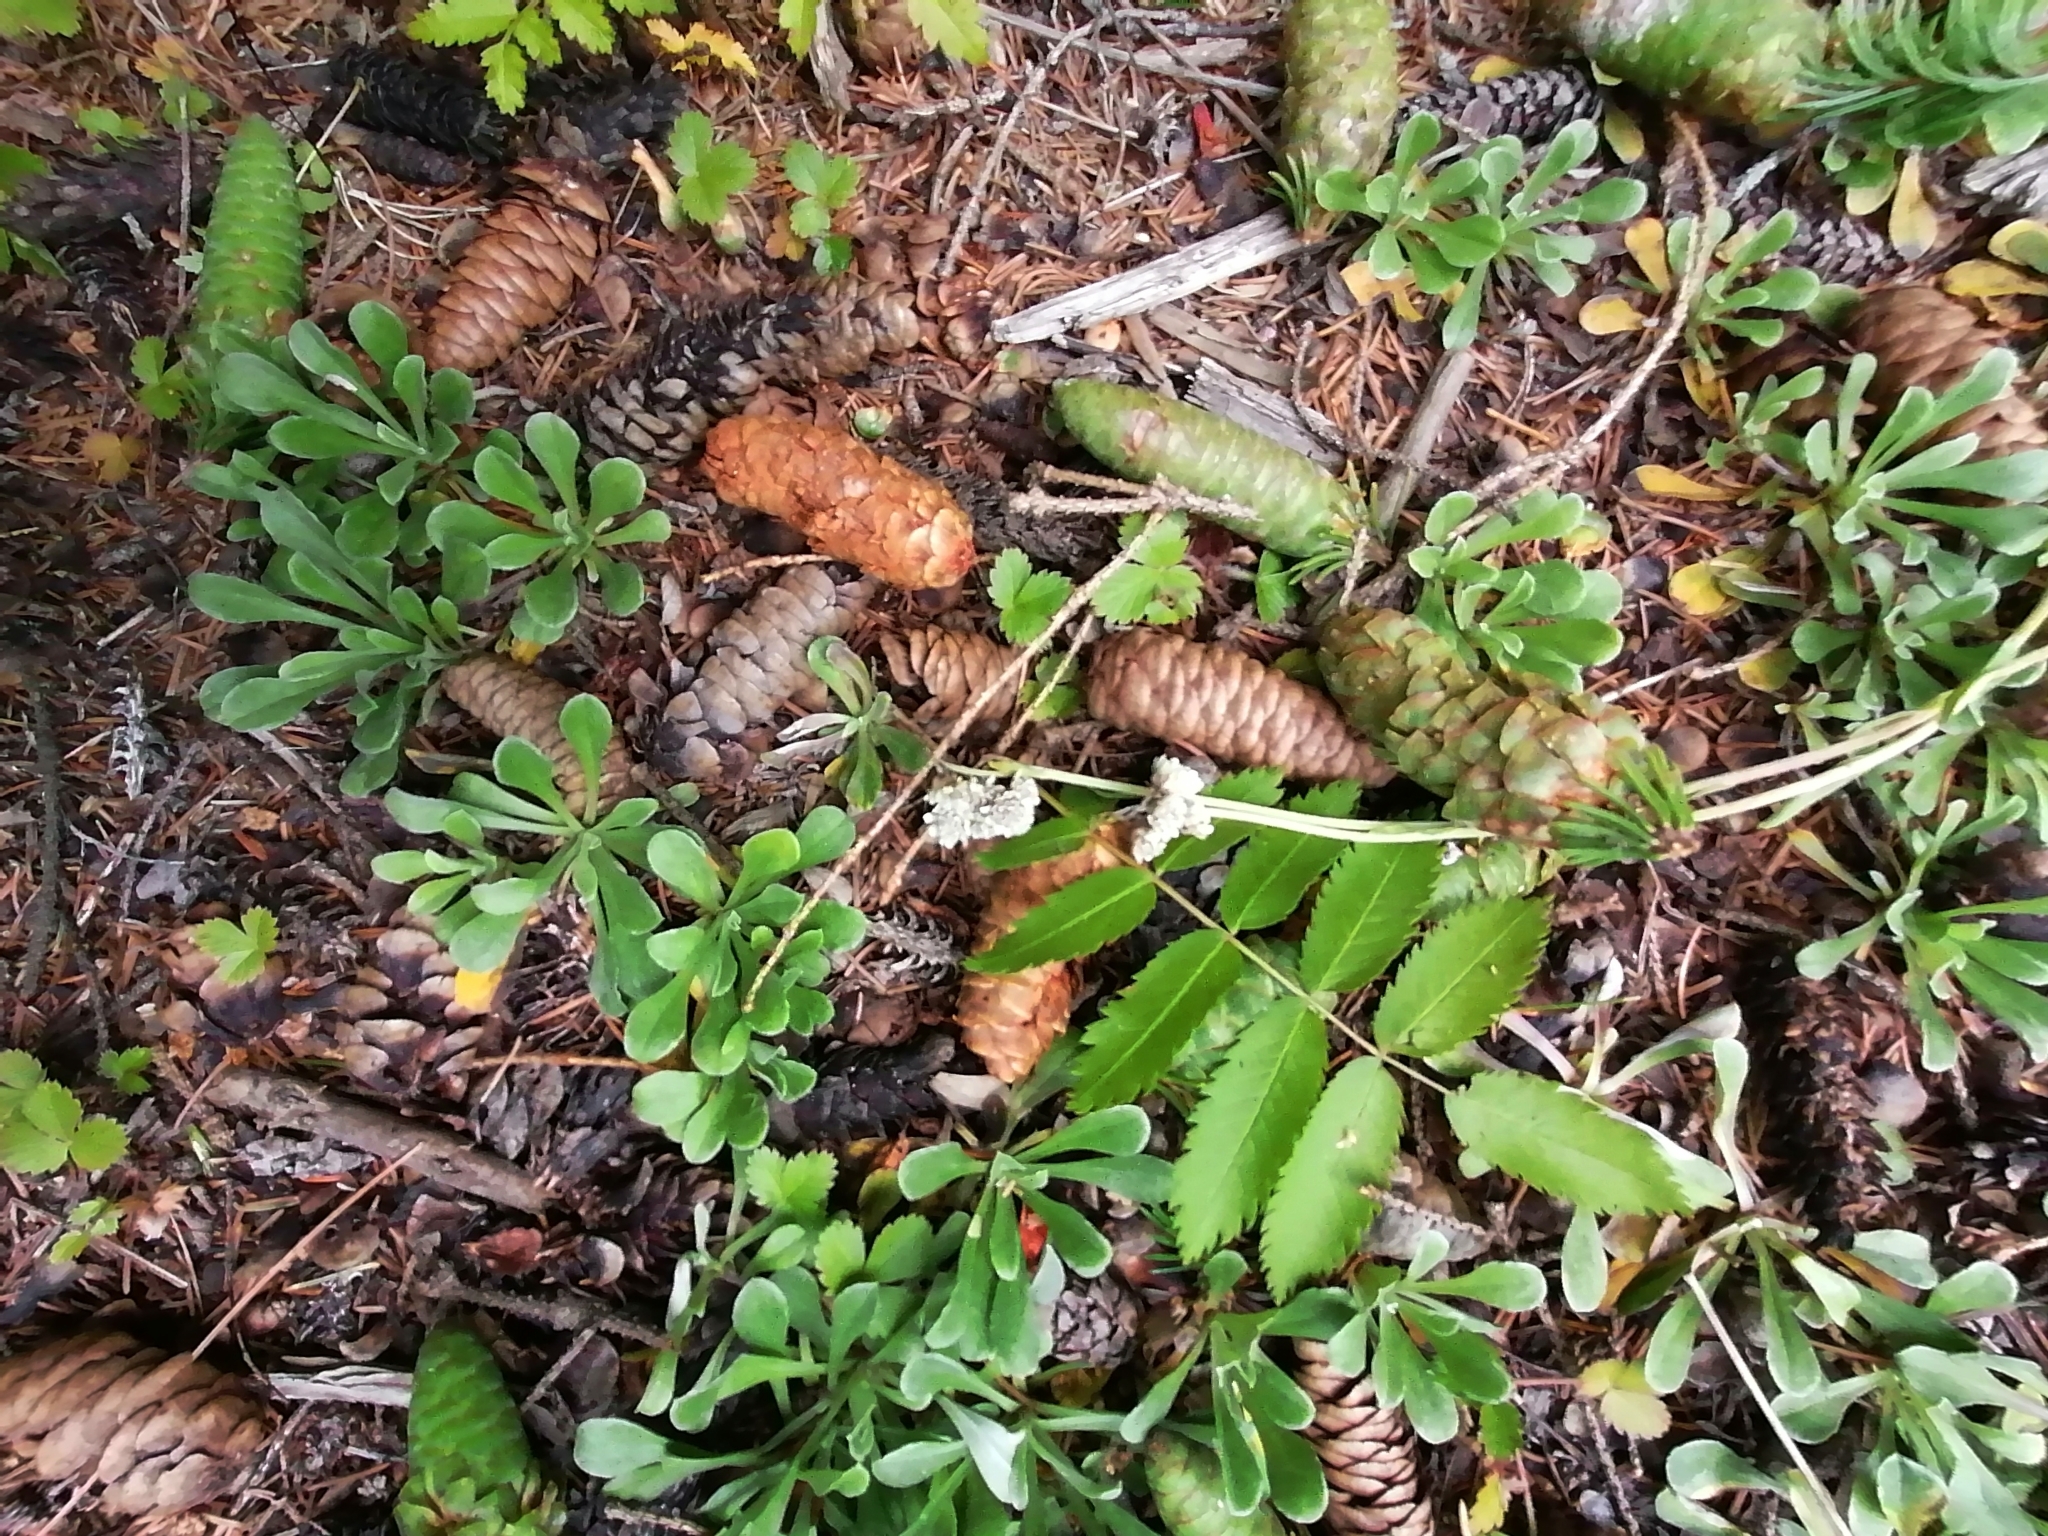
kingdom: Plantae
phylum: Tracheophyta
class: Magnoliopsida
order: Asterales
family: Asteraceae
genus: Antennaria
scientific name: Antennaria dioica
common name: Mountain everlasting
